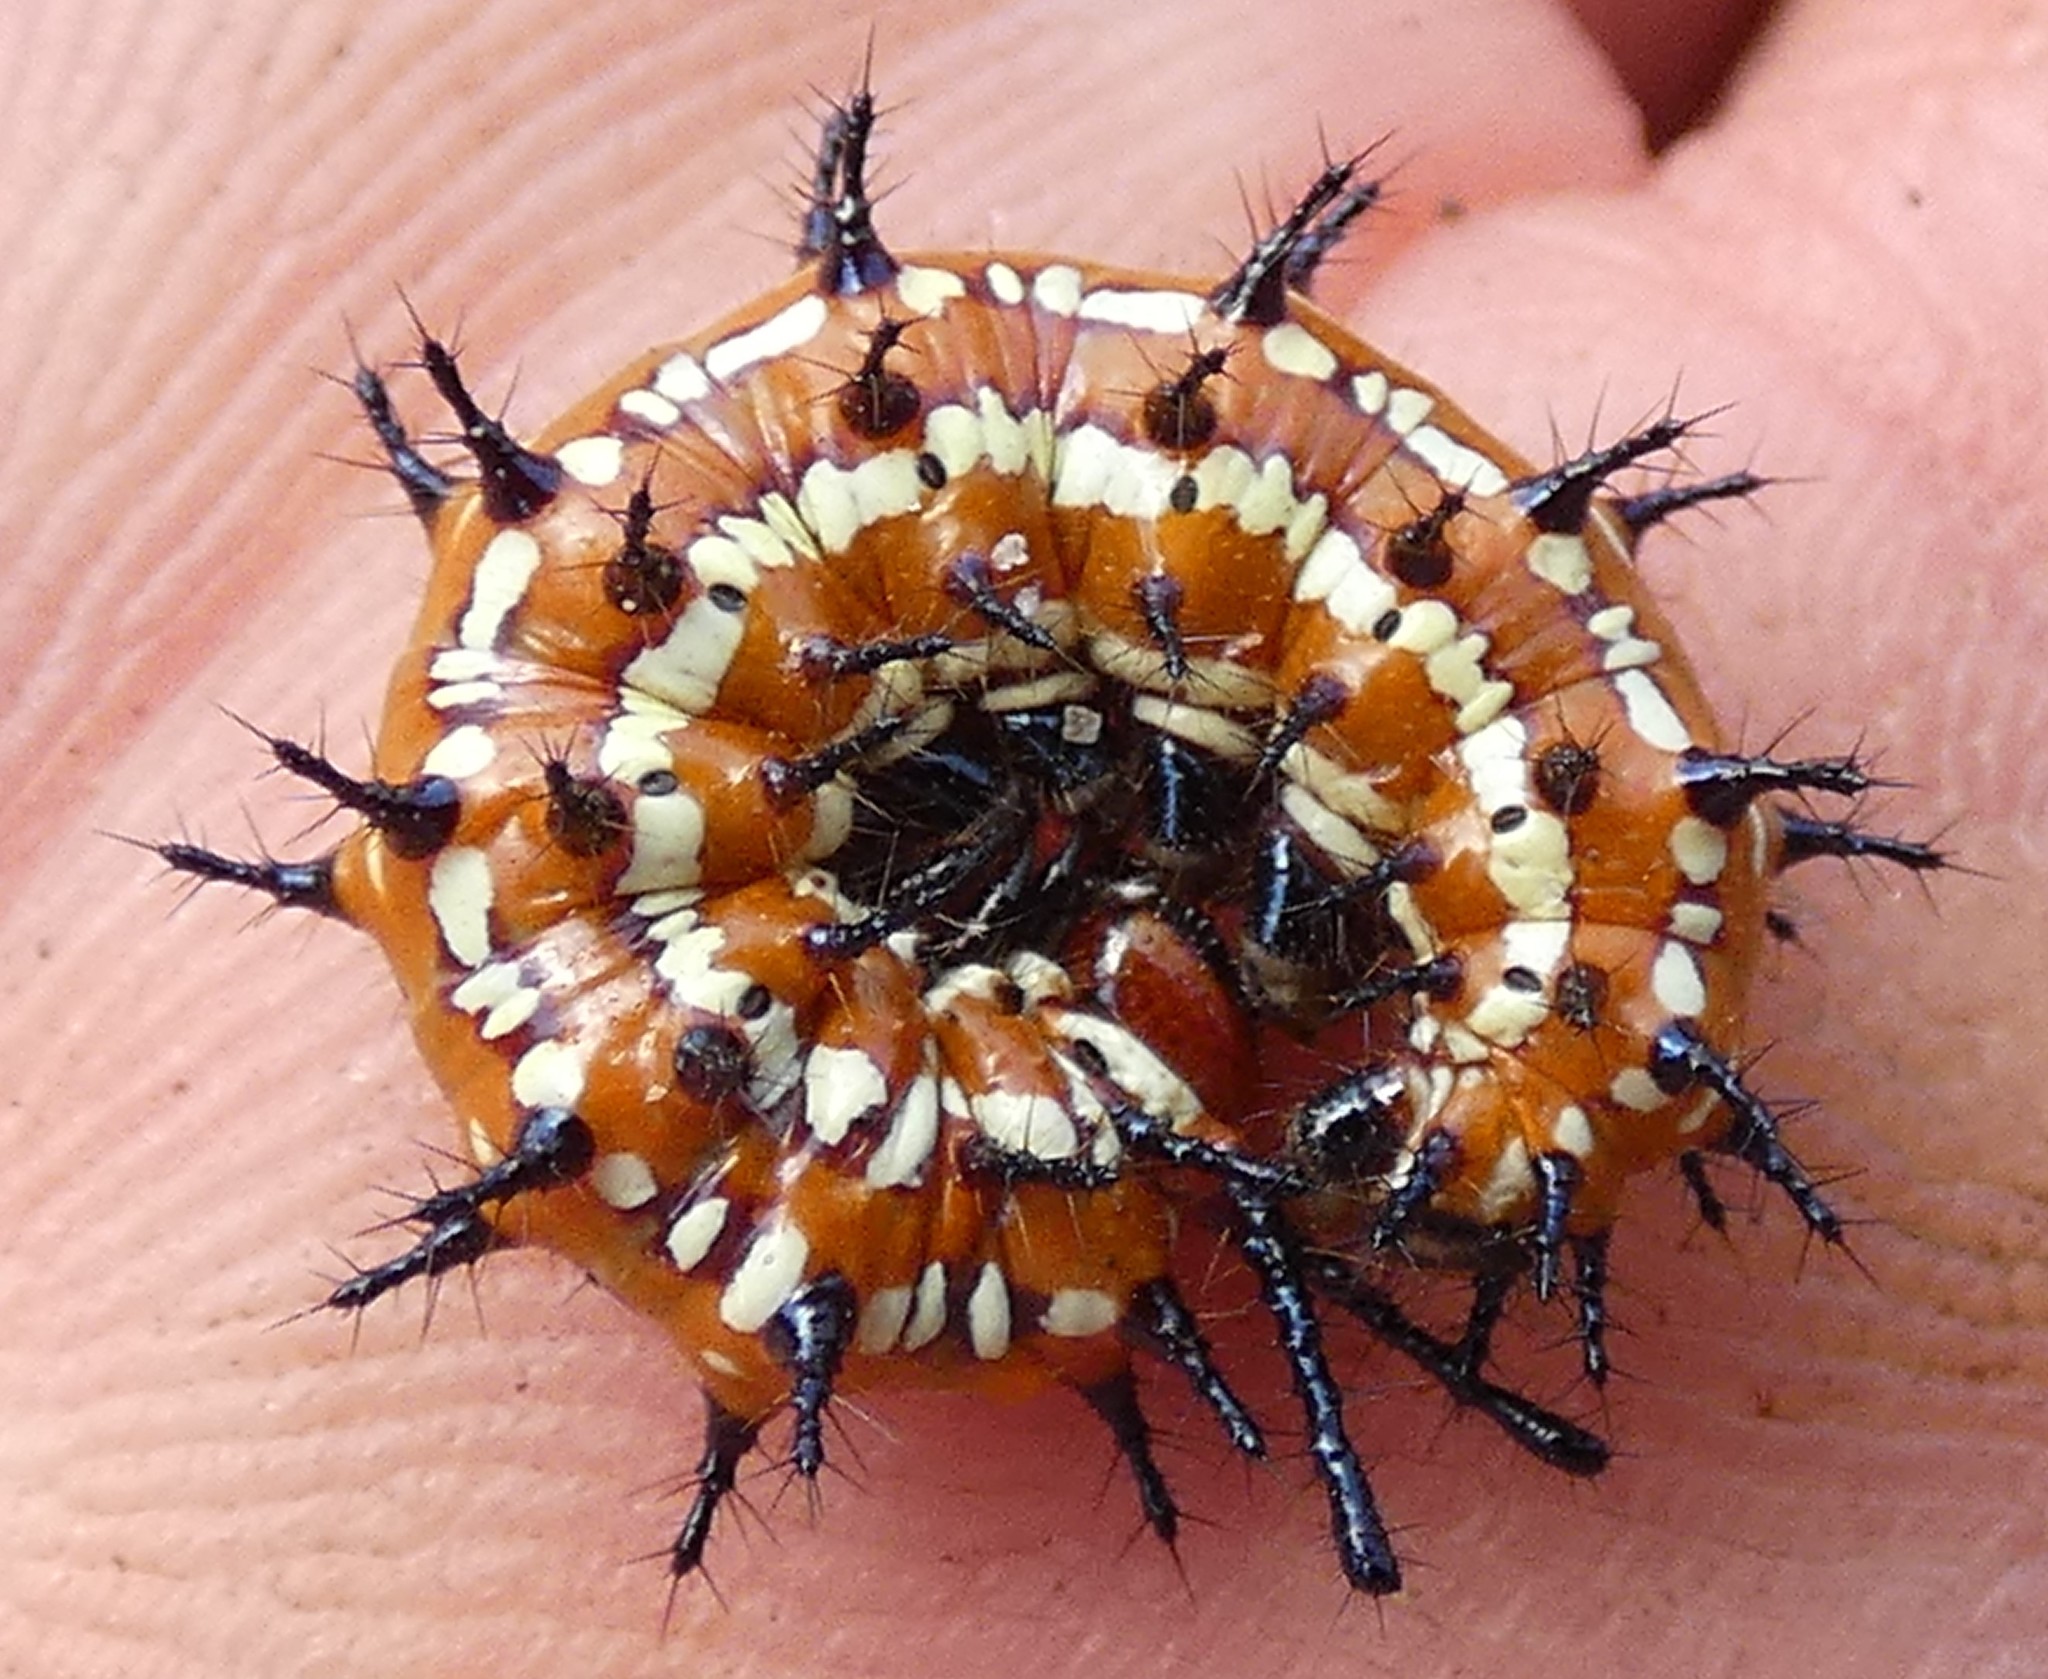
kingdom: Animalia
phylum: Arthropoda
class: Insecta
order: Lepidoptera
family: Nymphalidae
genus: Euptoieta
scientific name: Euptoieta claudia
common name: Variegated fritillary
